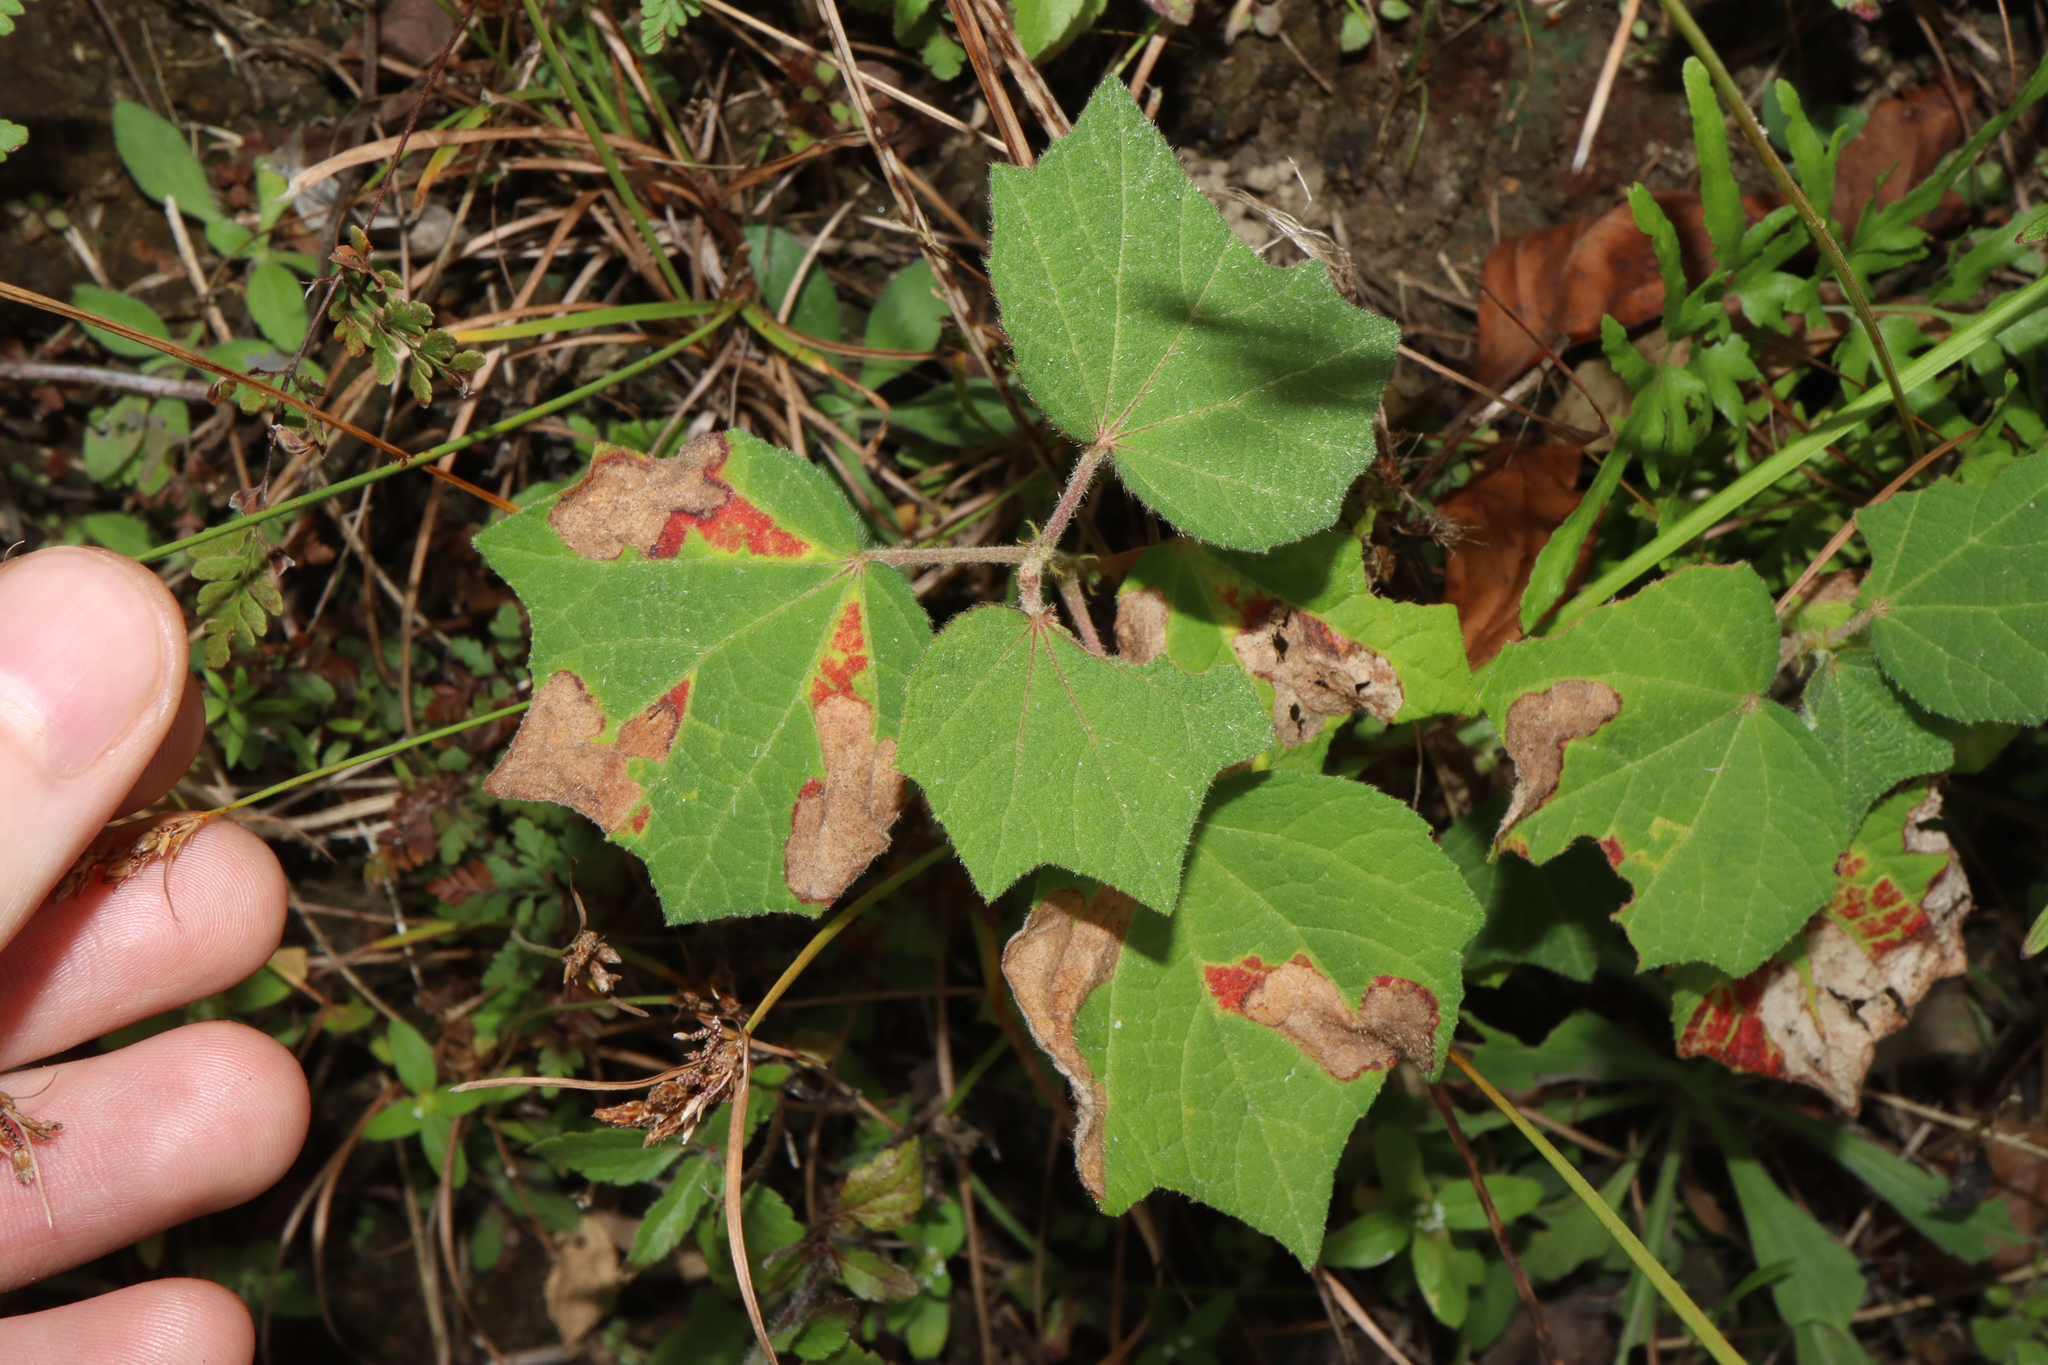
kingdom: Plantae
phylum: Tracheophyta
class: Magnoliopsida
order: Malvales
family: Malvaceae
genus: Urena
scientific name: Urena lobata
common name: Caesarweed
